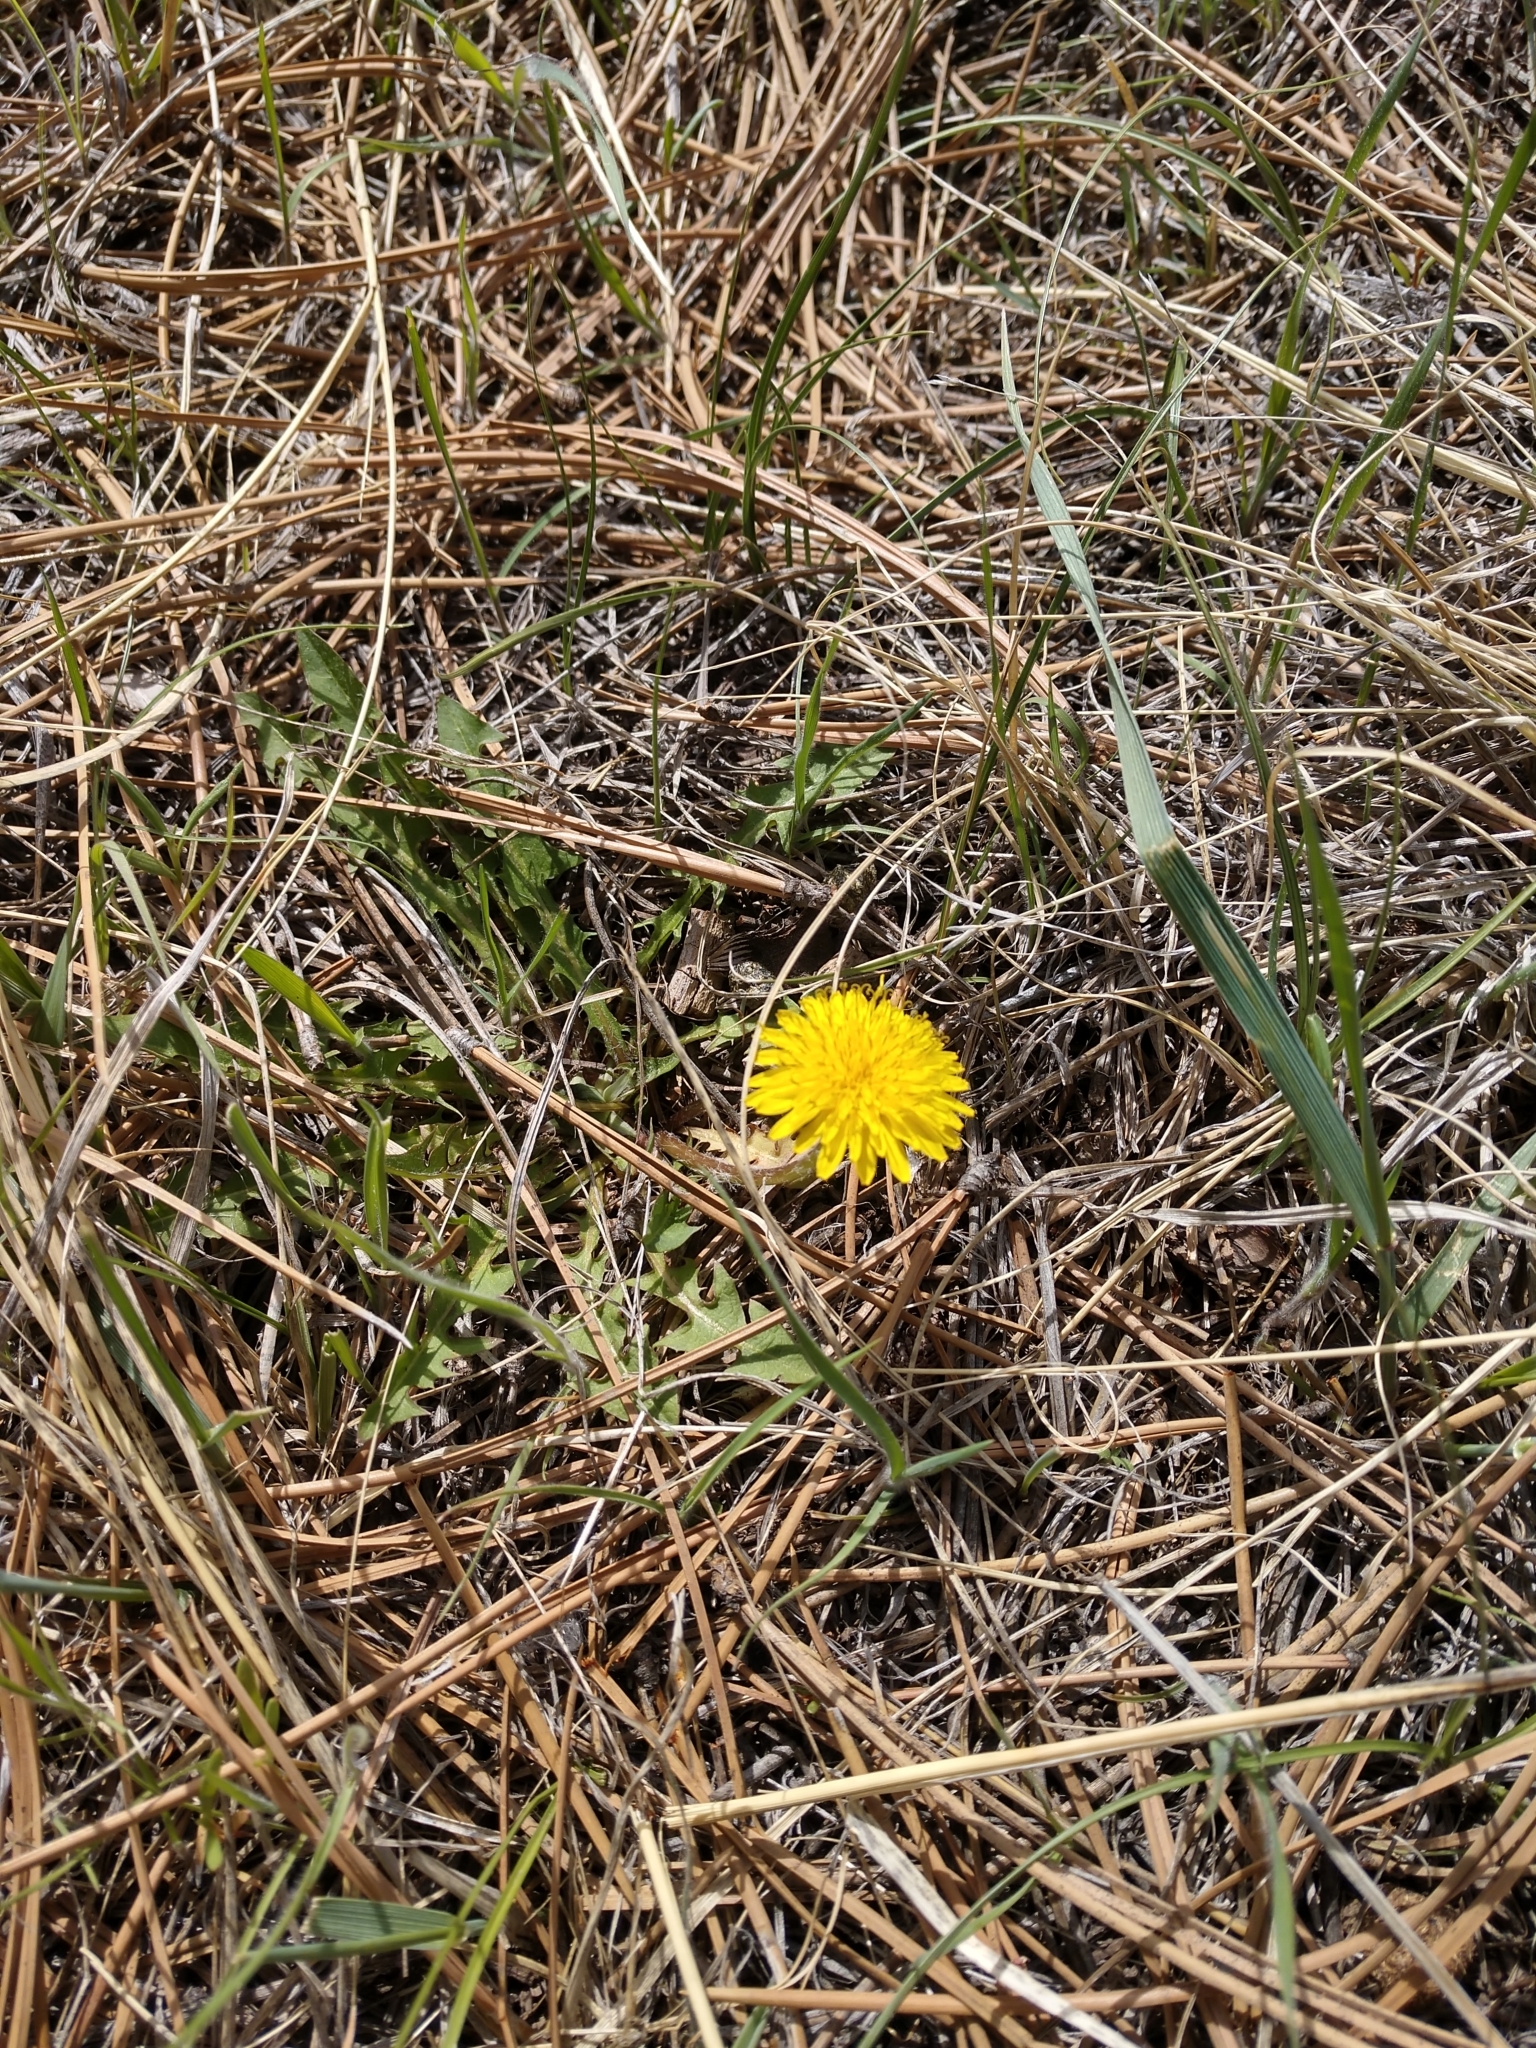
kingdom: Plantae
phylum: Tracheophyta
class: Magnoliopsida
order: Asterales
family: Asteraceae
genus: Taraxacum
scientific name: Taraxacum officinale
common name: Common dandelion
